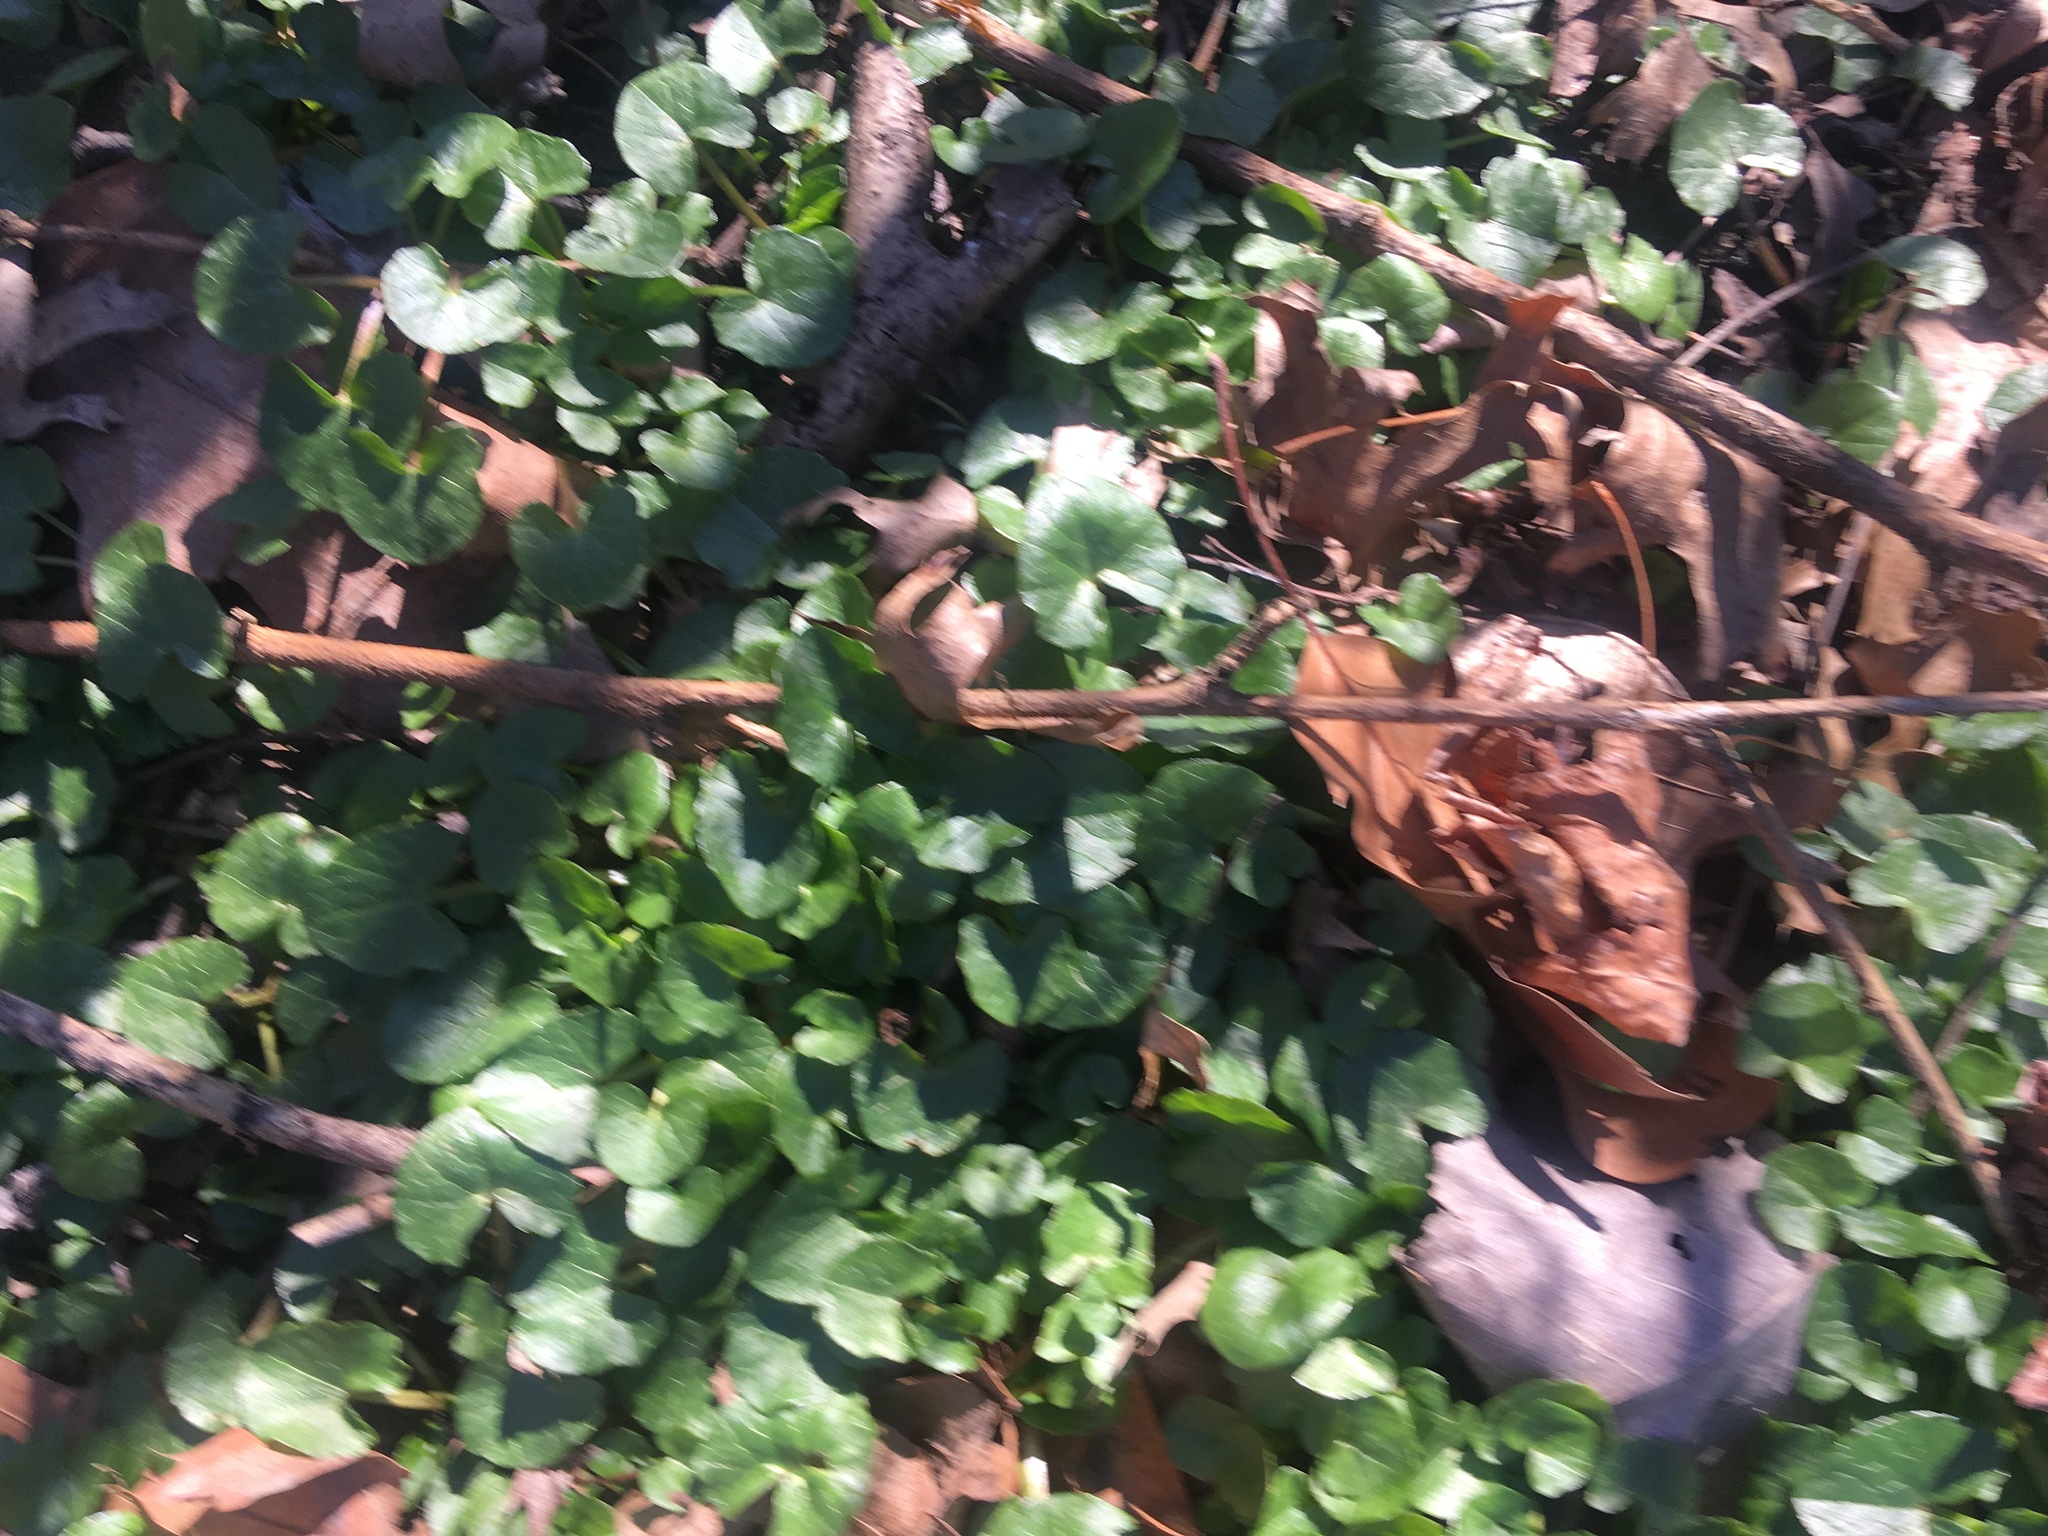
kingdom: Plantae
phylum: Tracheophyta
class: Magnoliopsida
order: Ranunculales
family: Ranunculaceae
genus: Ficaria
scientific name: Ficaria verna
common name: Lesser celandine
